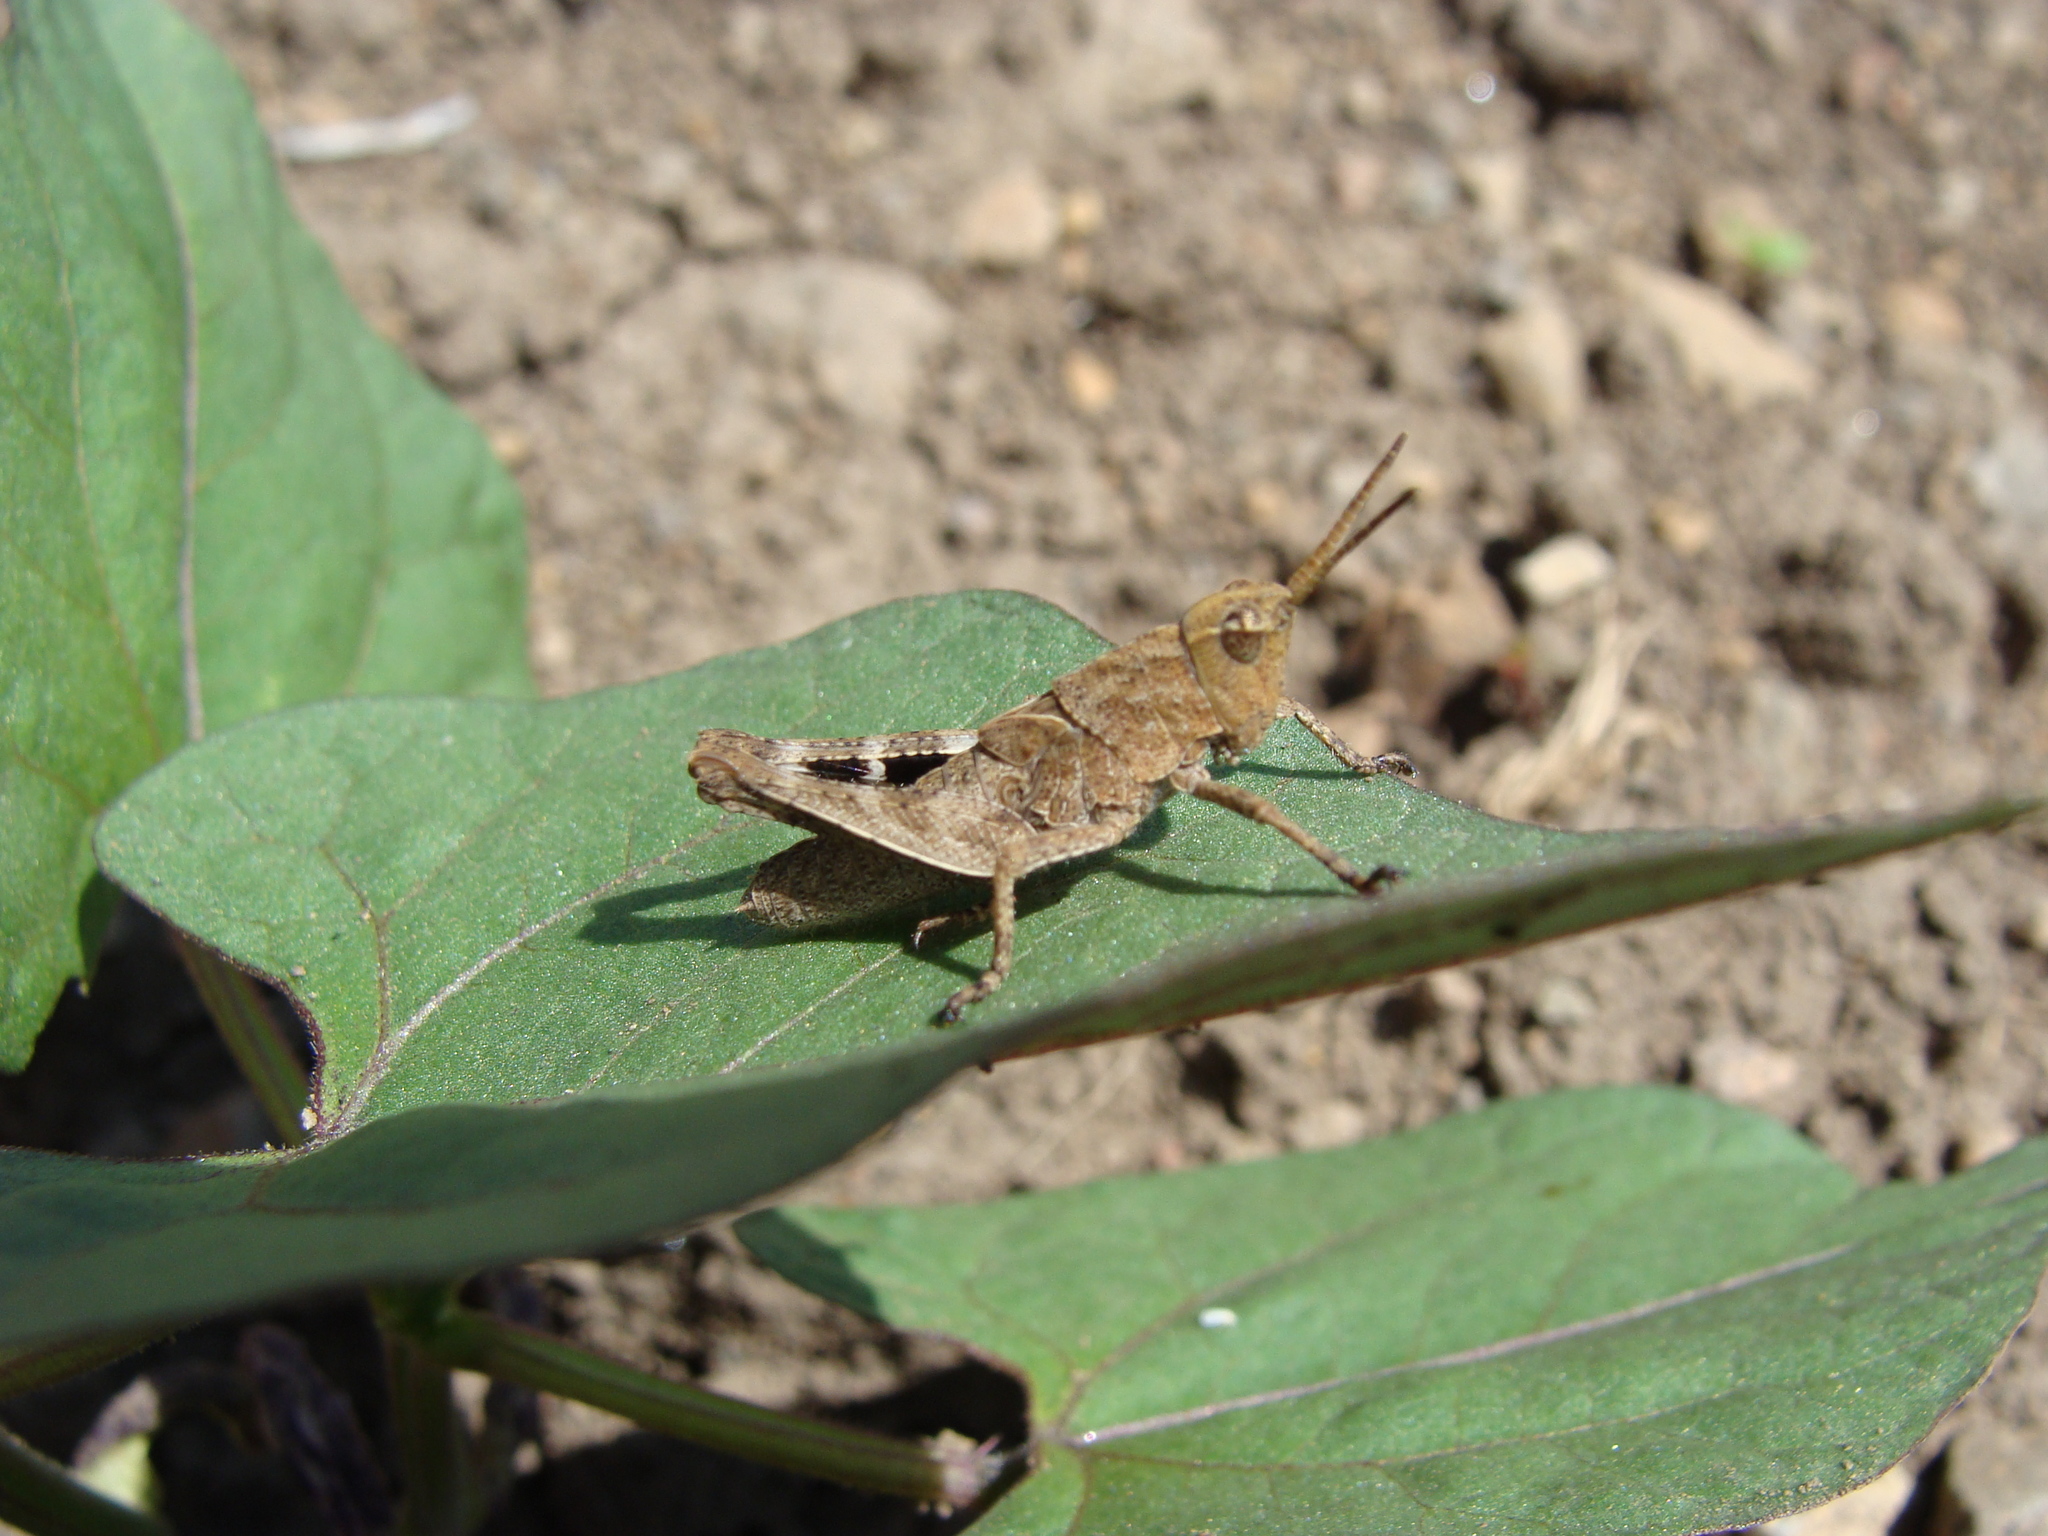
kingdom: Animalia
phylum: Arthropoda
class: Insecta
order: Orthoptera
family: Acrididae
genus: Machaerocera
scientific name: Machaerocera mexicana
